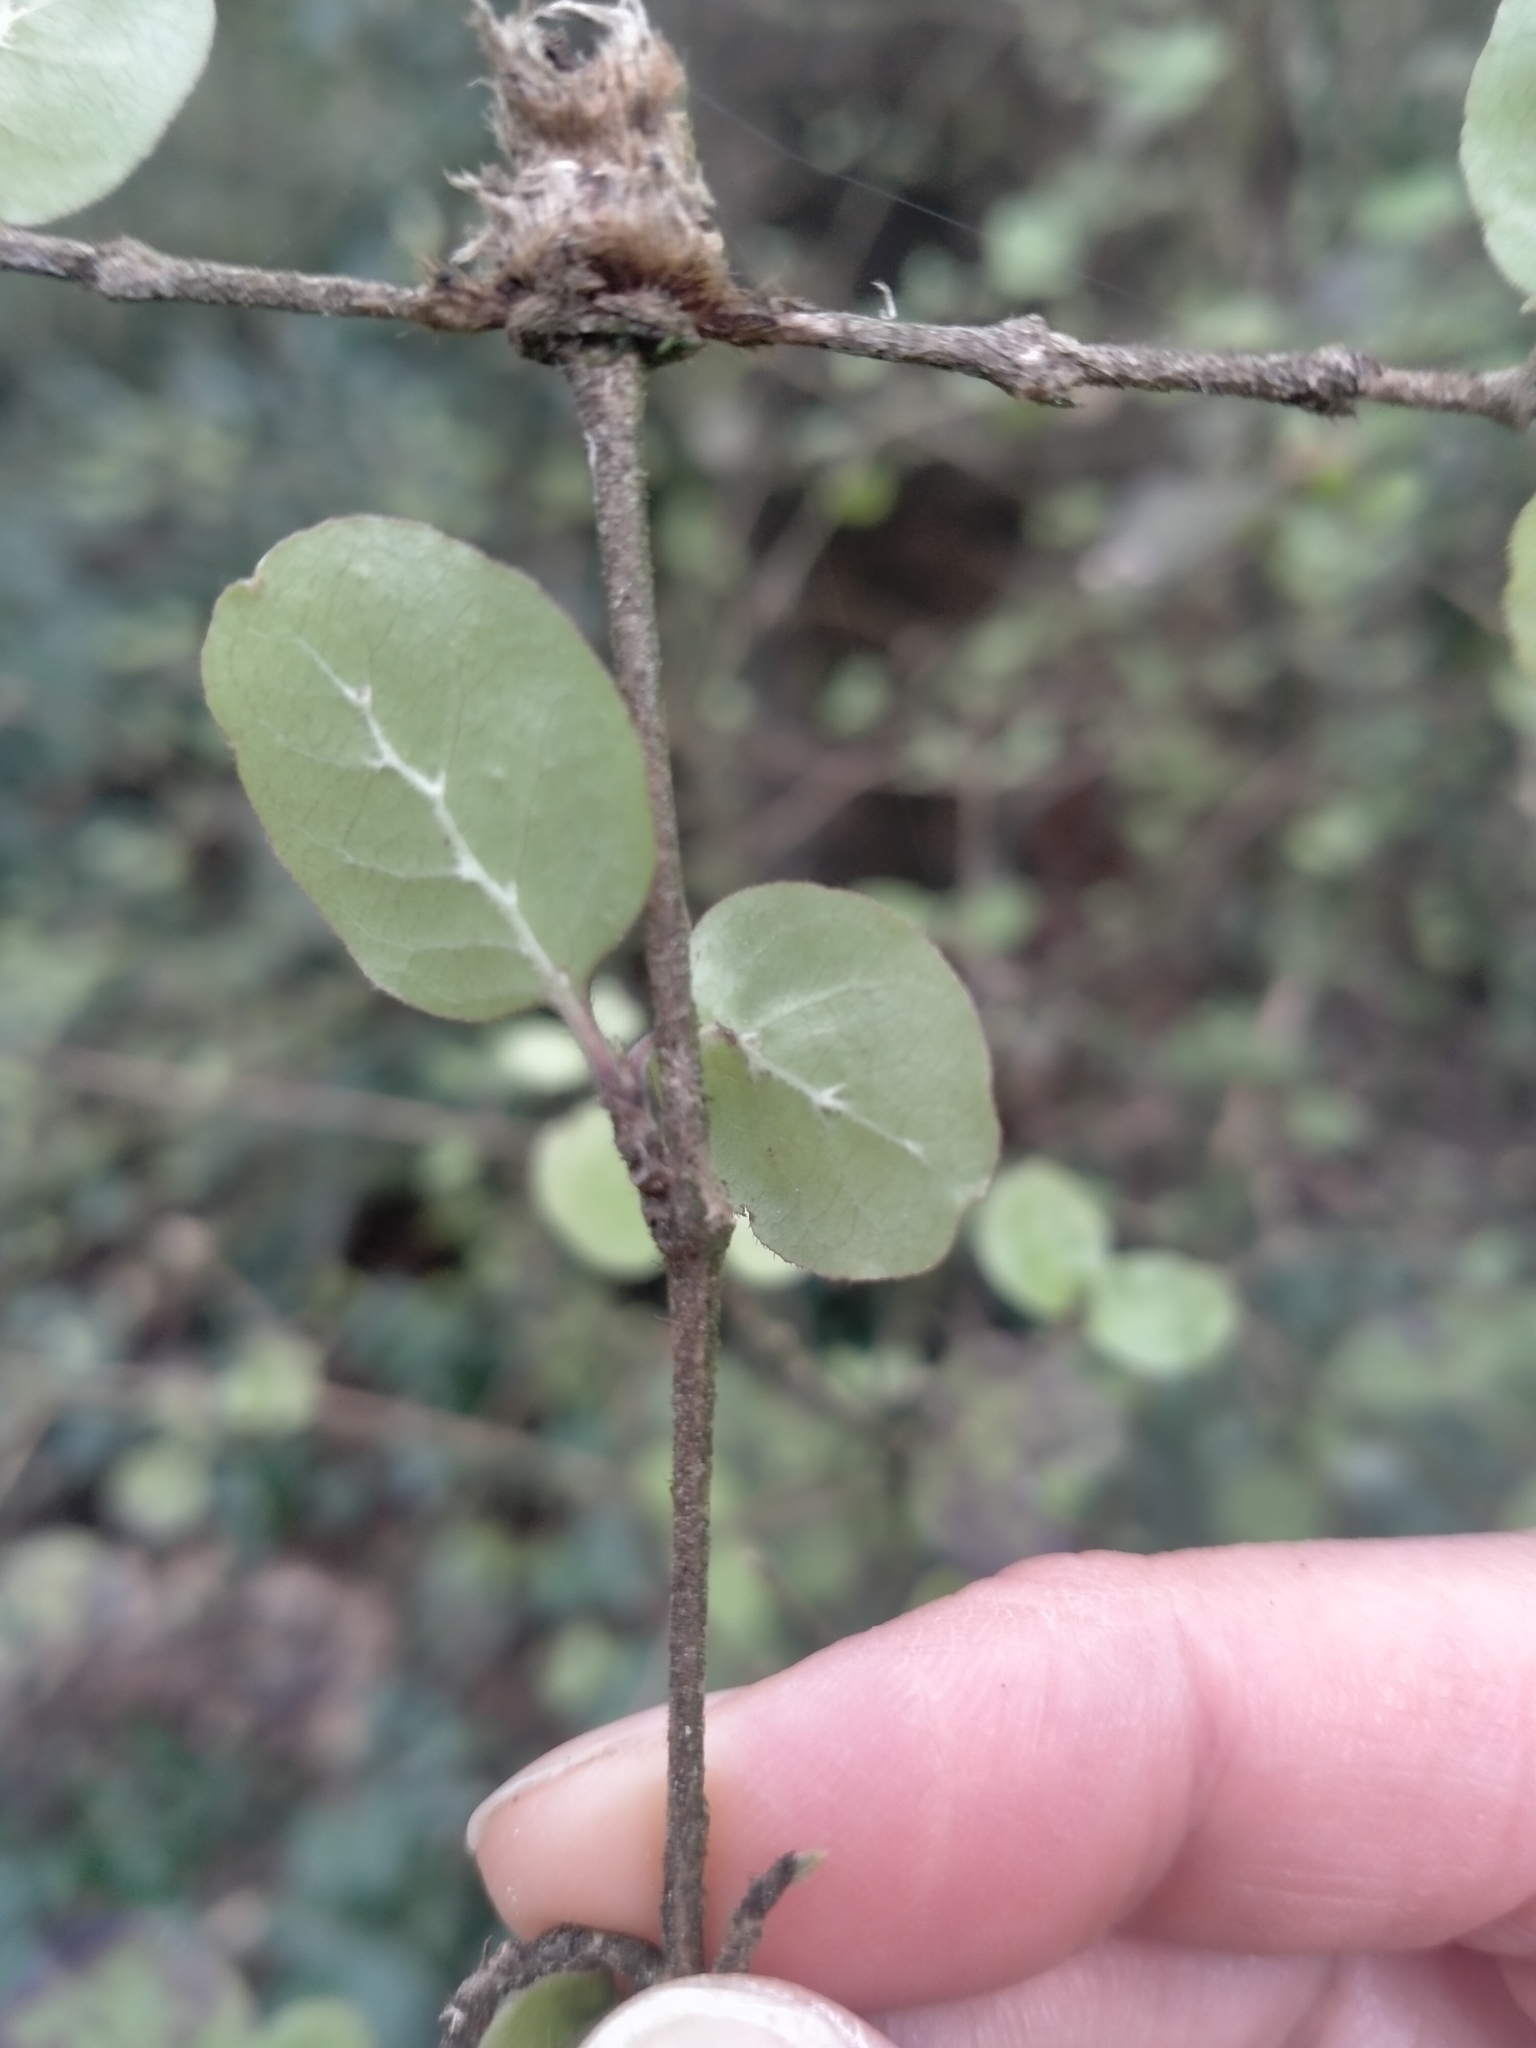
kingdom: Plantae
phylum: Tracheophyta
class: Magnoliopsida
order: Gentianales
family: Rubiaceae
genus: Coprosma
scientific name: Coprosma rotundifolia
